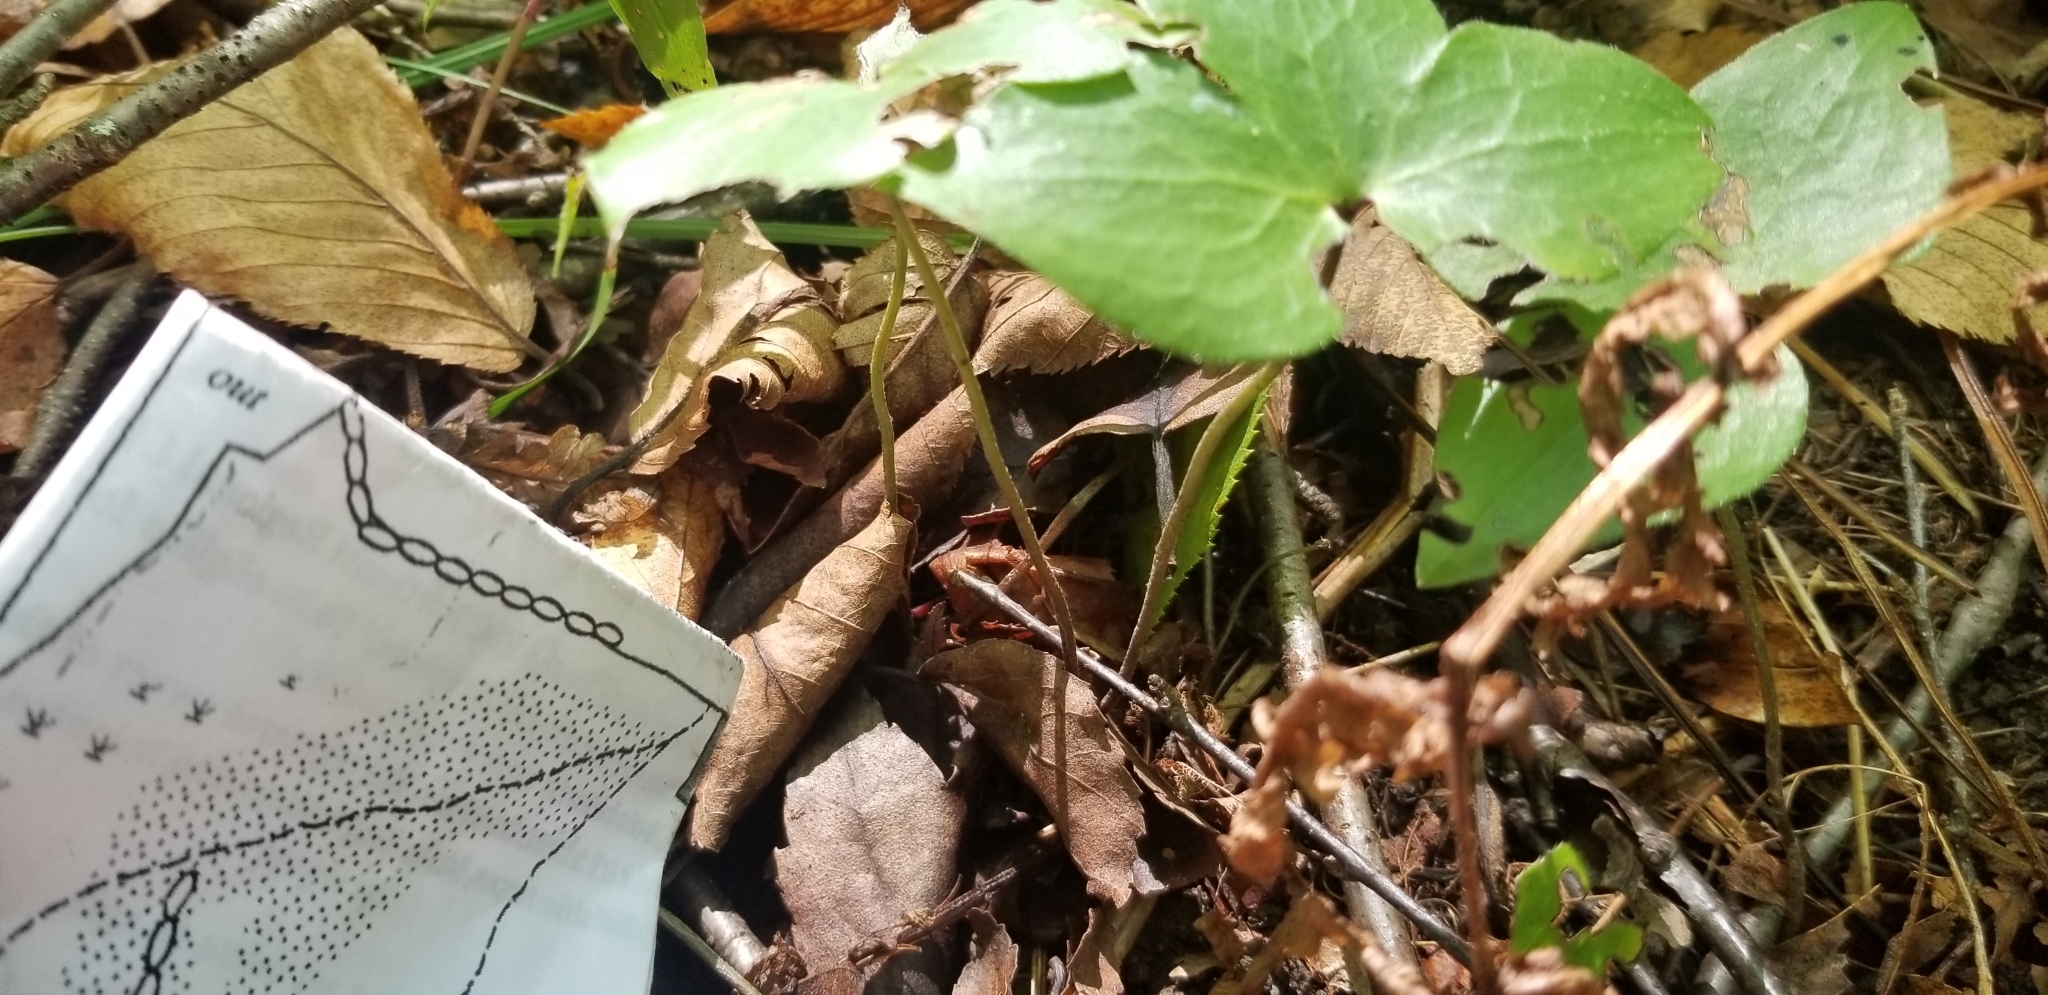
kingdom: Plantae
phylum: Tracheophyta
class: Magnoliopsida
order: Ranunculales
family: Ranunculaceae
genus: Hepatica
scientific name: Hepatica acutiloba
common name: Sharp-lobed hepatica
